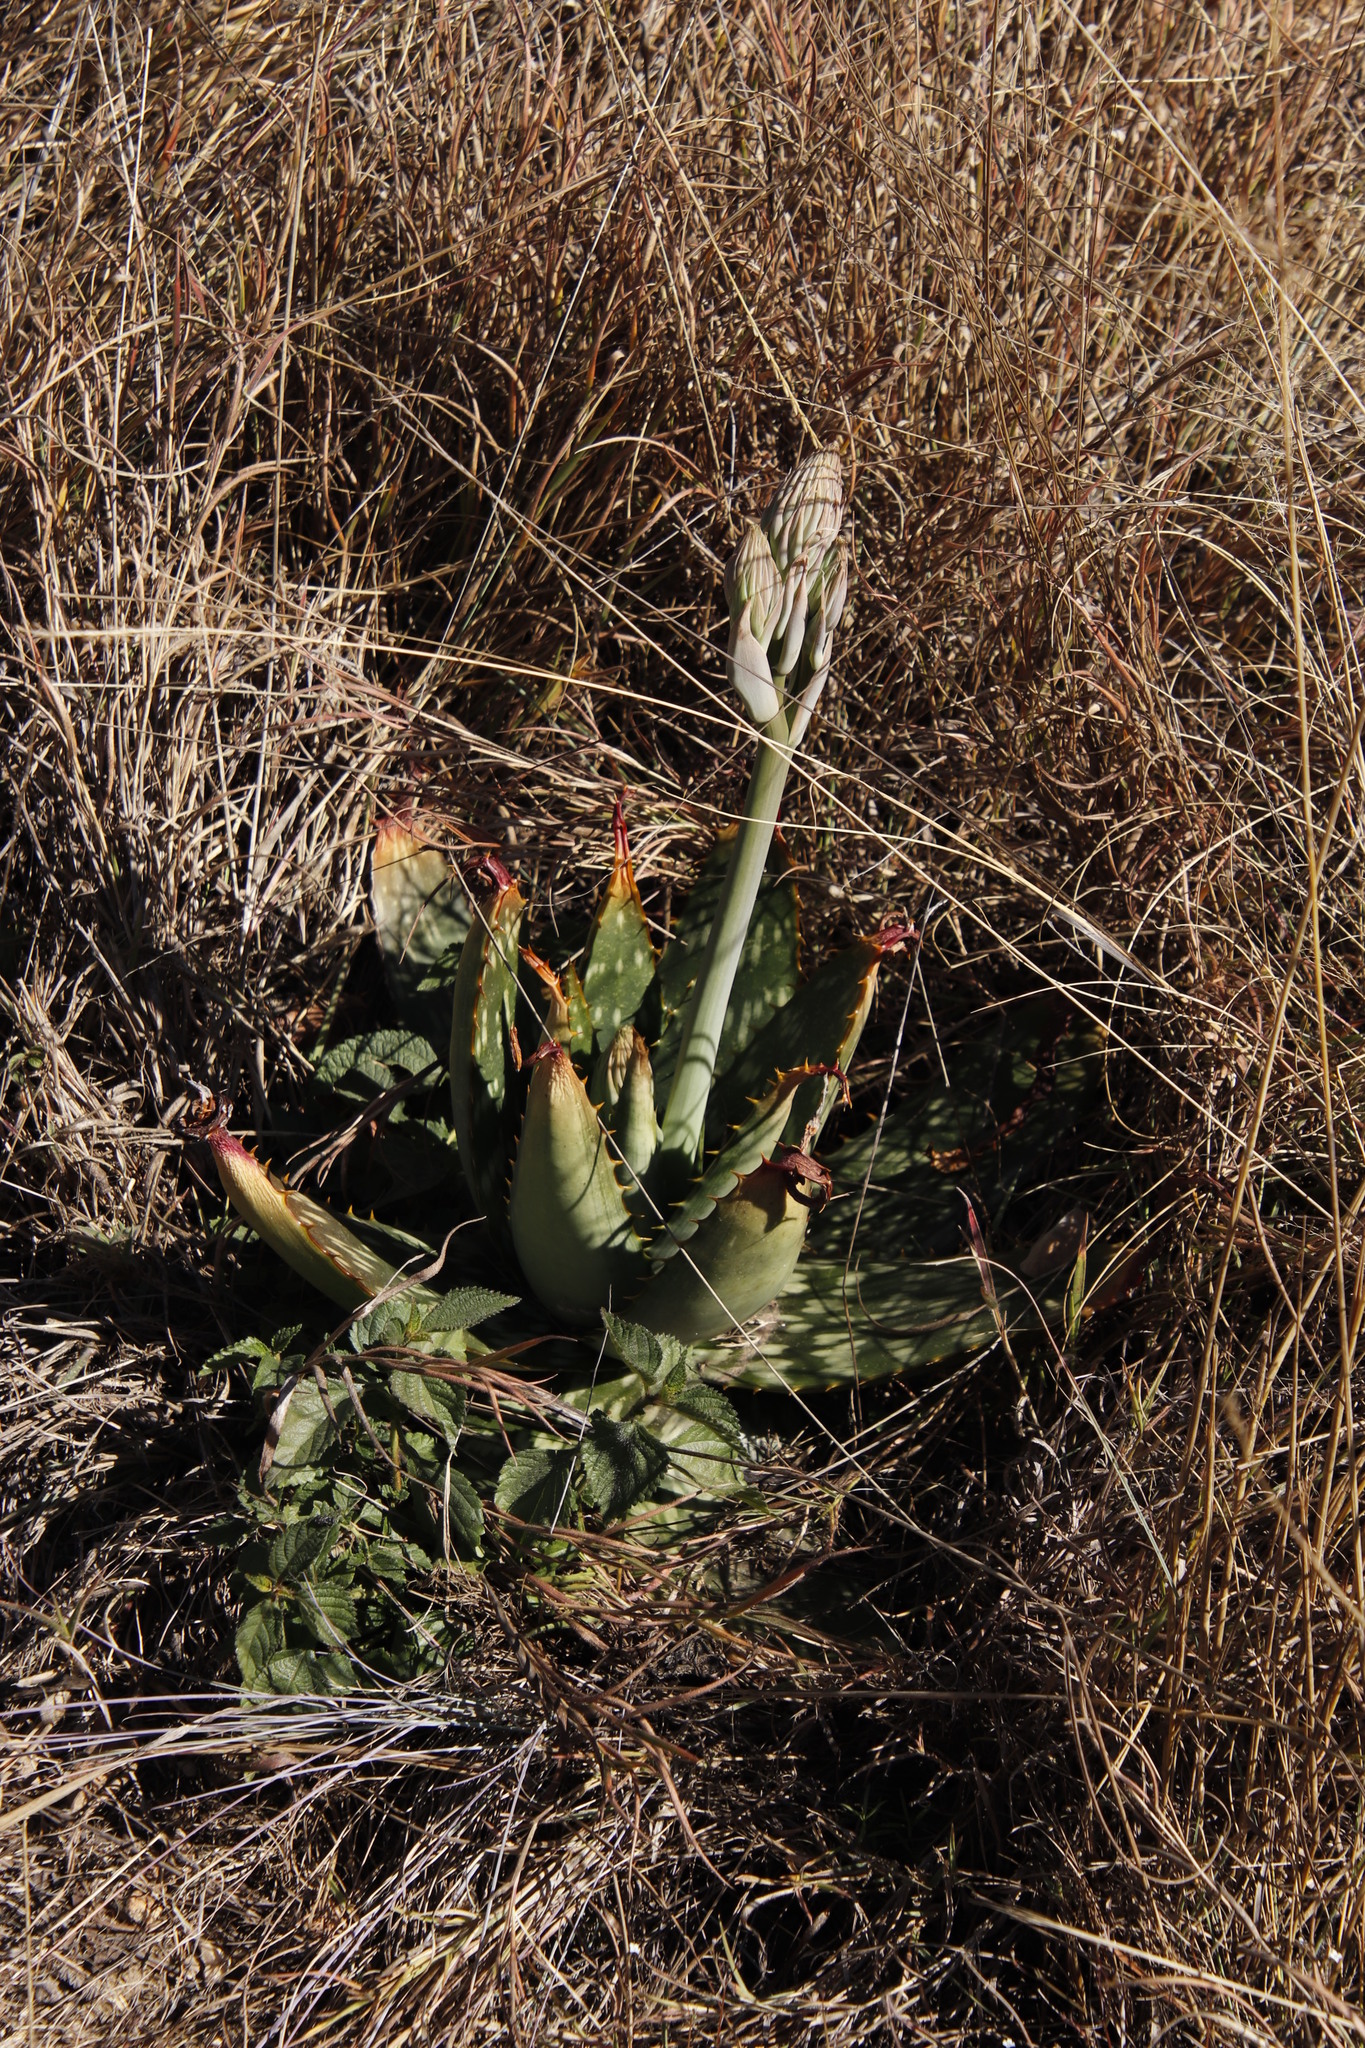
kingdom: Plantae
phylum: Tracheophyta
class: Liliopsida
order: Asparagales
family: Asphodelaceae
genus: Aloe
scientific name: Aloe davyana
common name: Spotted aloe
